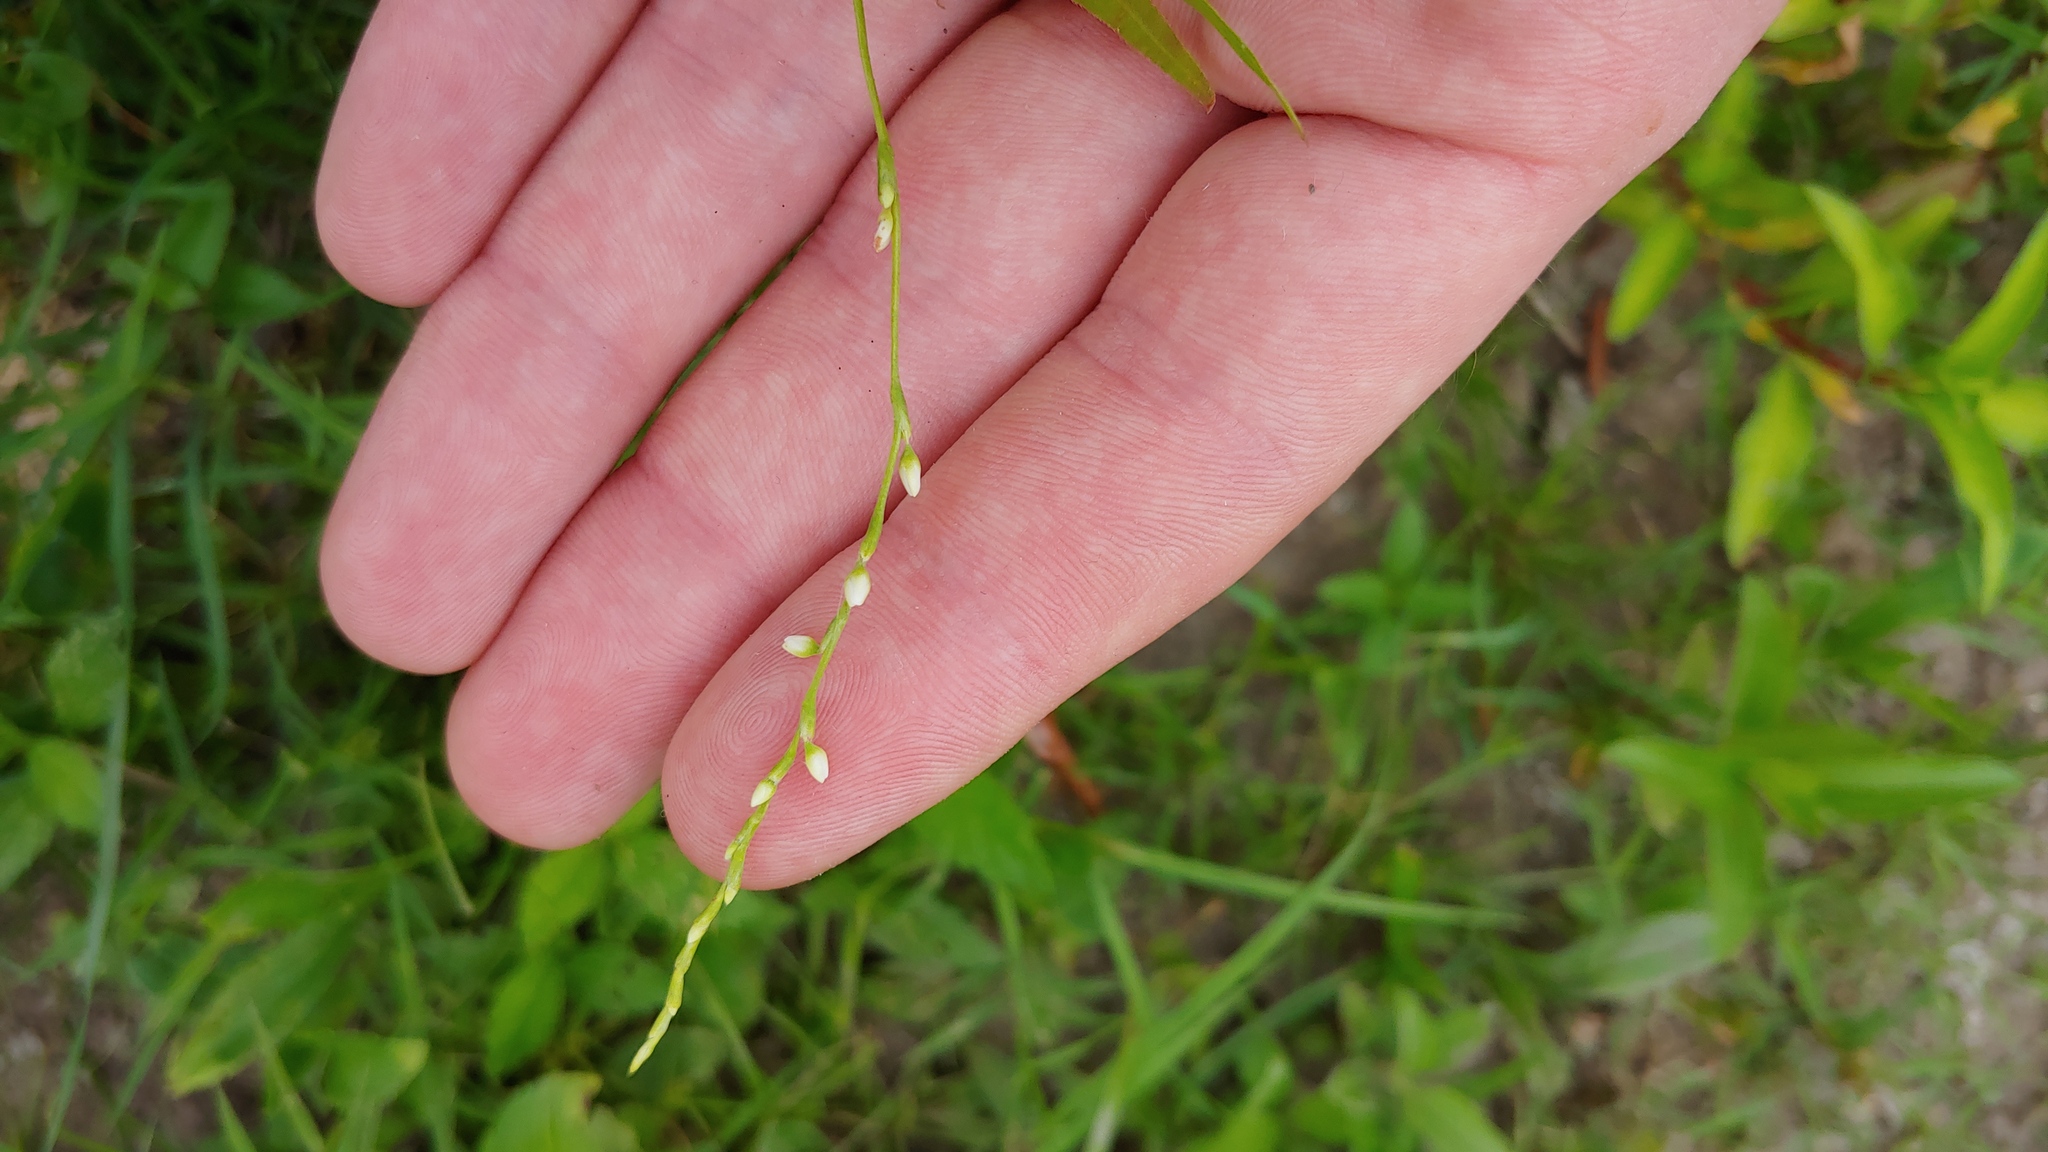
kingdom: Plantae
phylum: Tracheophyta
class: Magnoliopsida
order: Caryophyllales
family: Polygonaceae
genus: Persicaria
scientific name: Persicaria punctata
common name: Dotted smartweed
